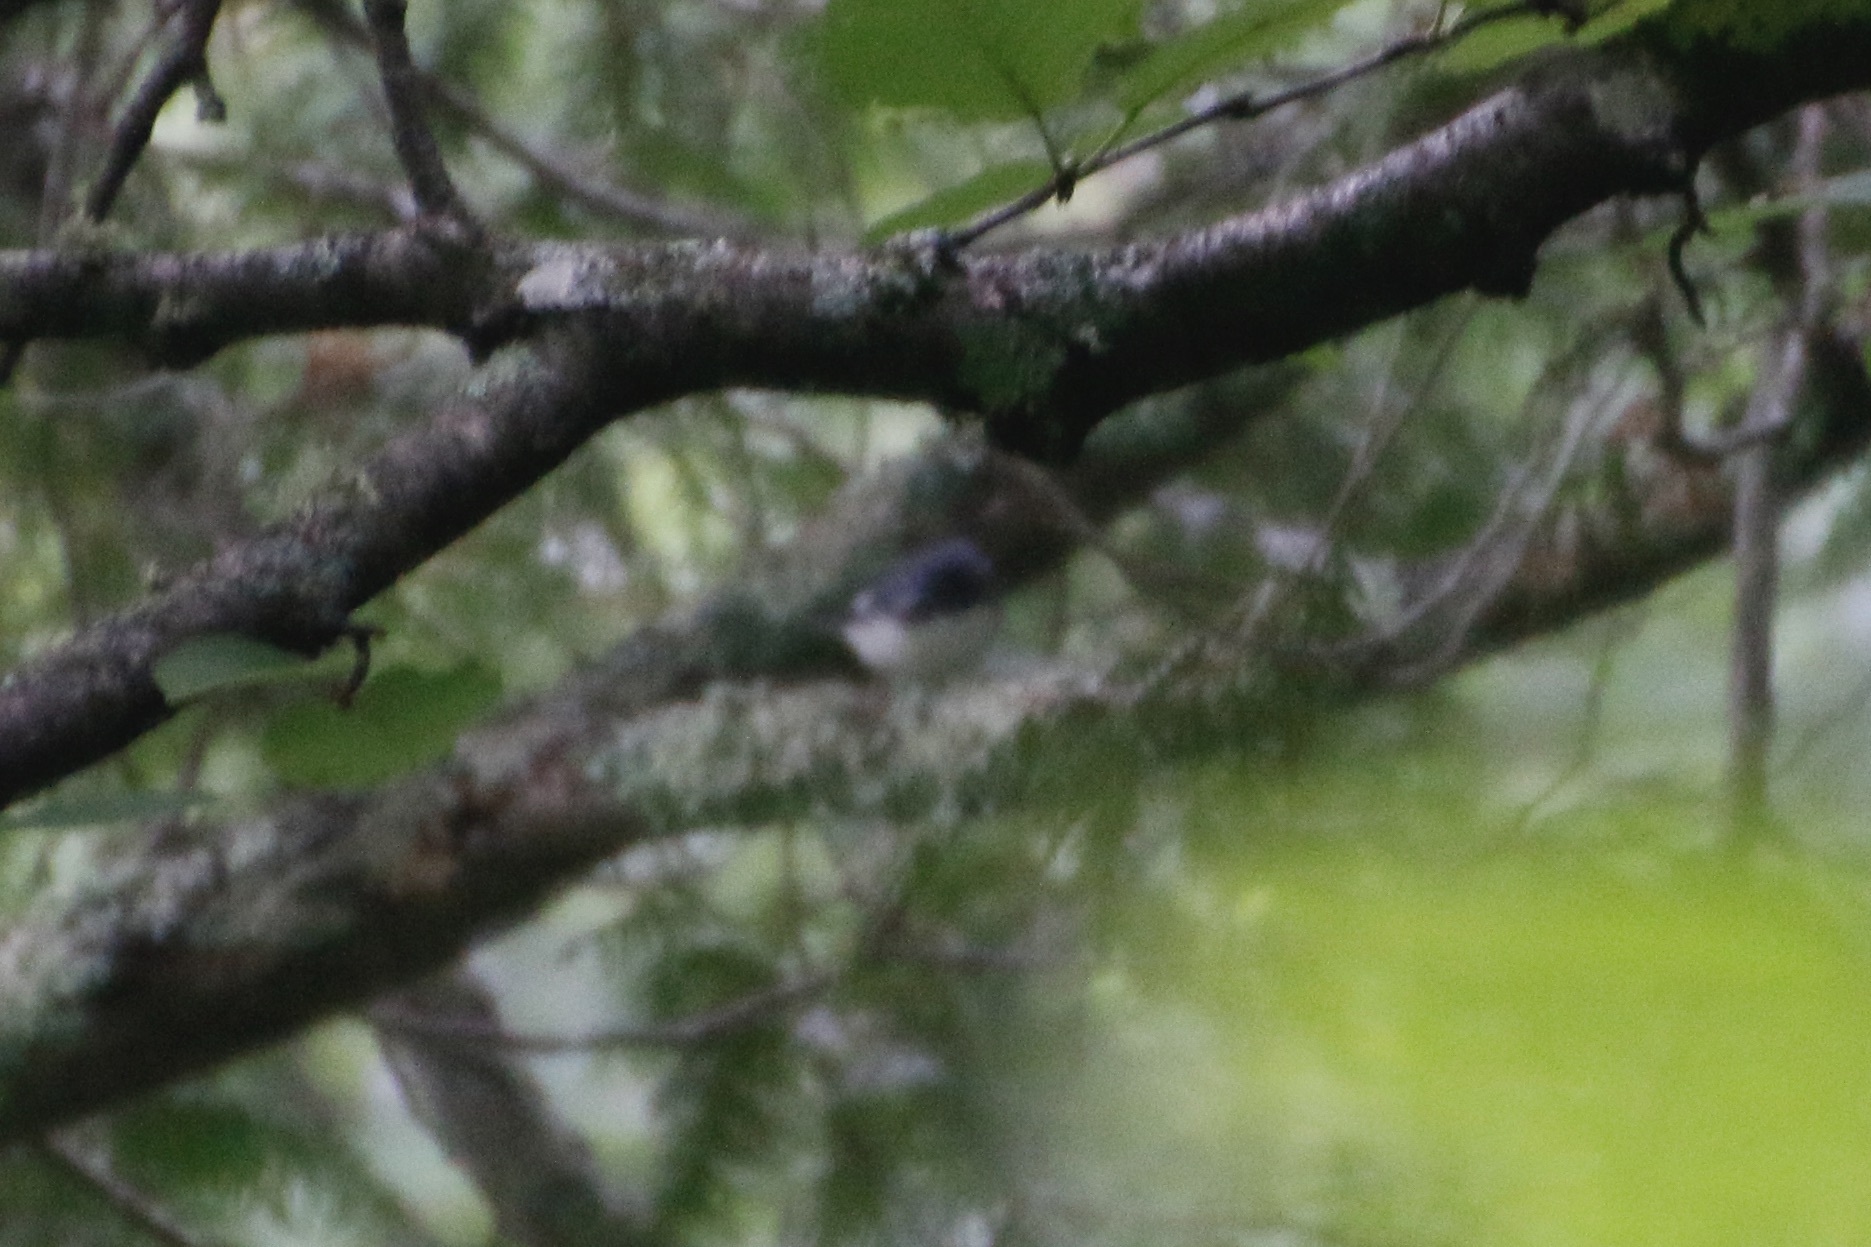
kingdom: Animalia
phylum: Chordata
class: Aves
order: Passeriformes
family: Parulidae
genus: Setophaga
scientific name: Setophaga caerulescens
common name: Black-throated blue warbler
